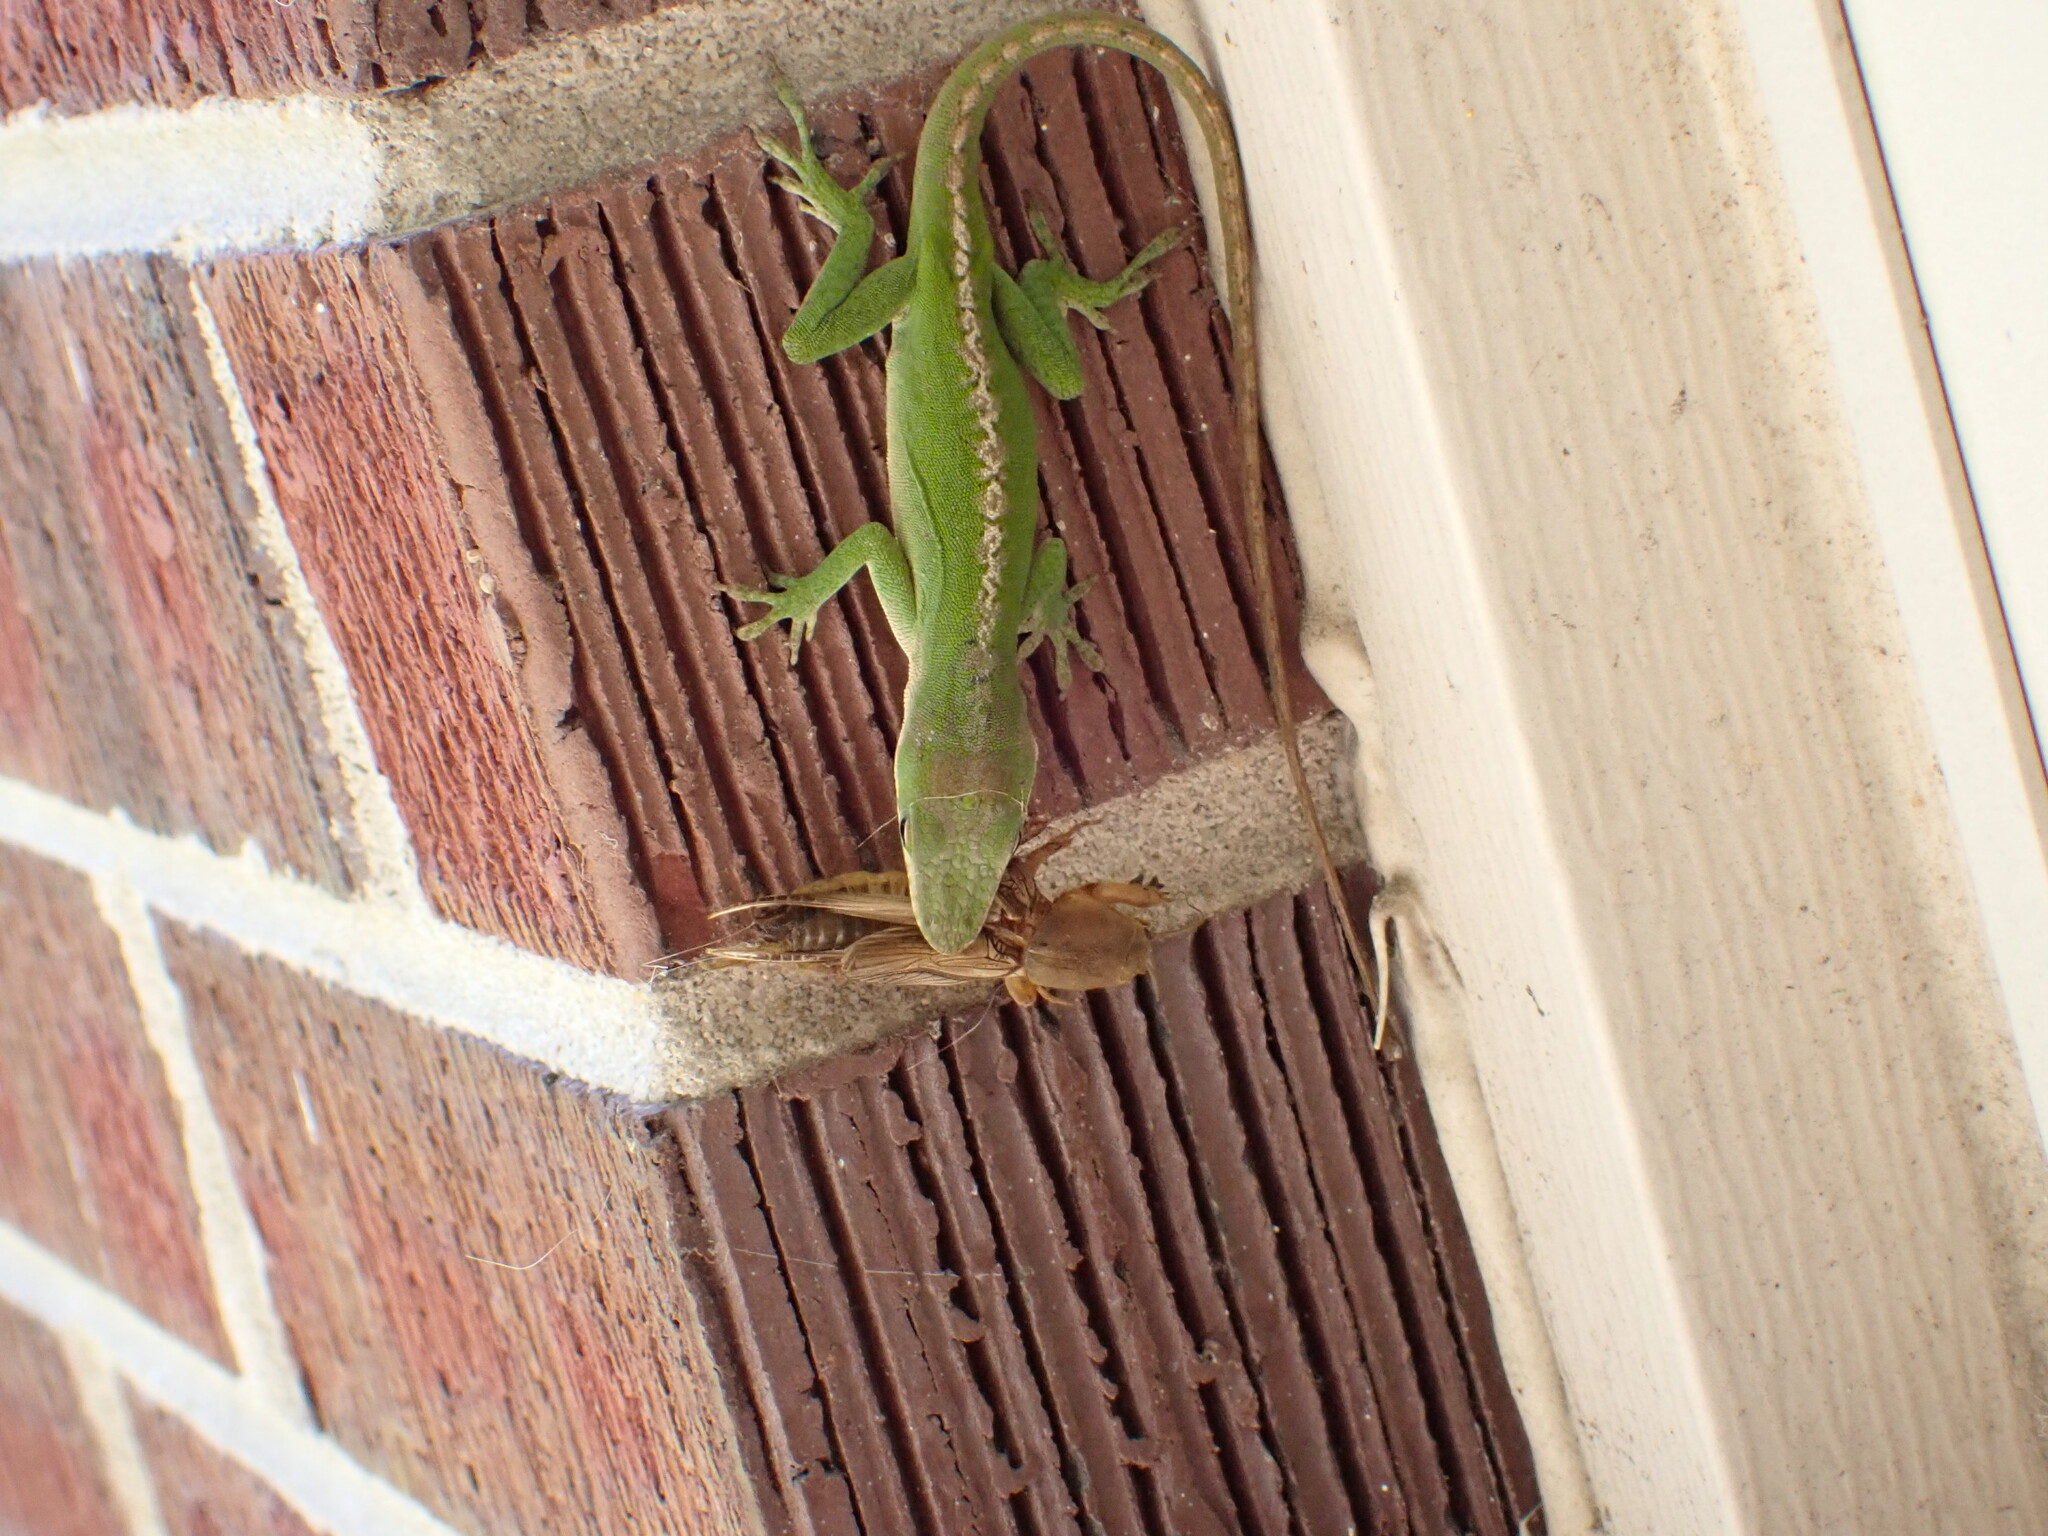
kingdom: Animalia
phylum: Chordata
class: Squamata
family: Dactyloidae
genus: Anolis
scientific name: Anolis carolinensis
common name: Green anole
